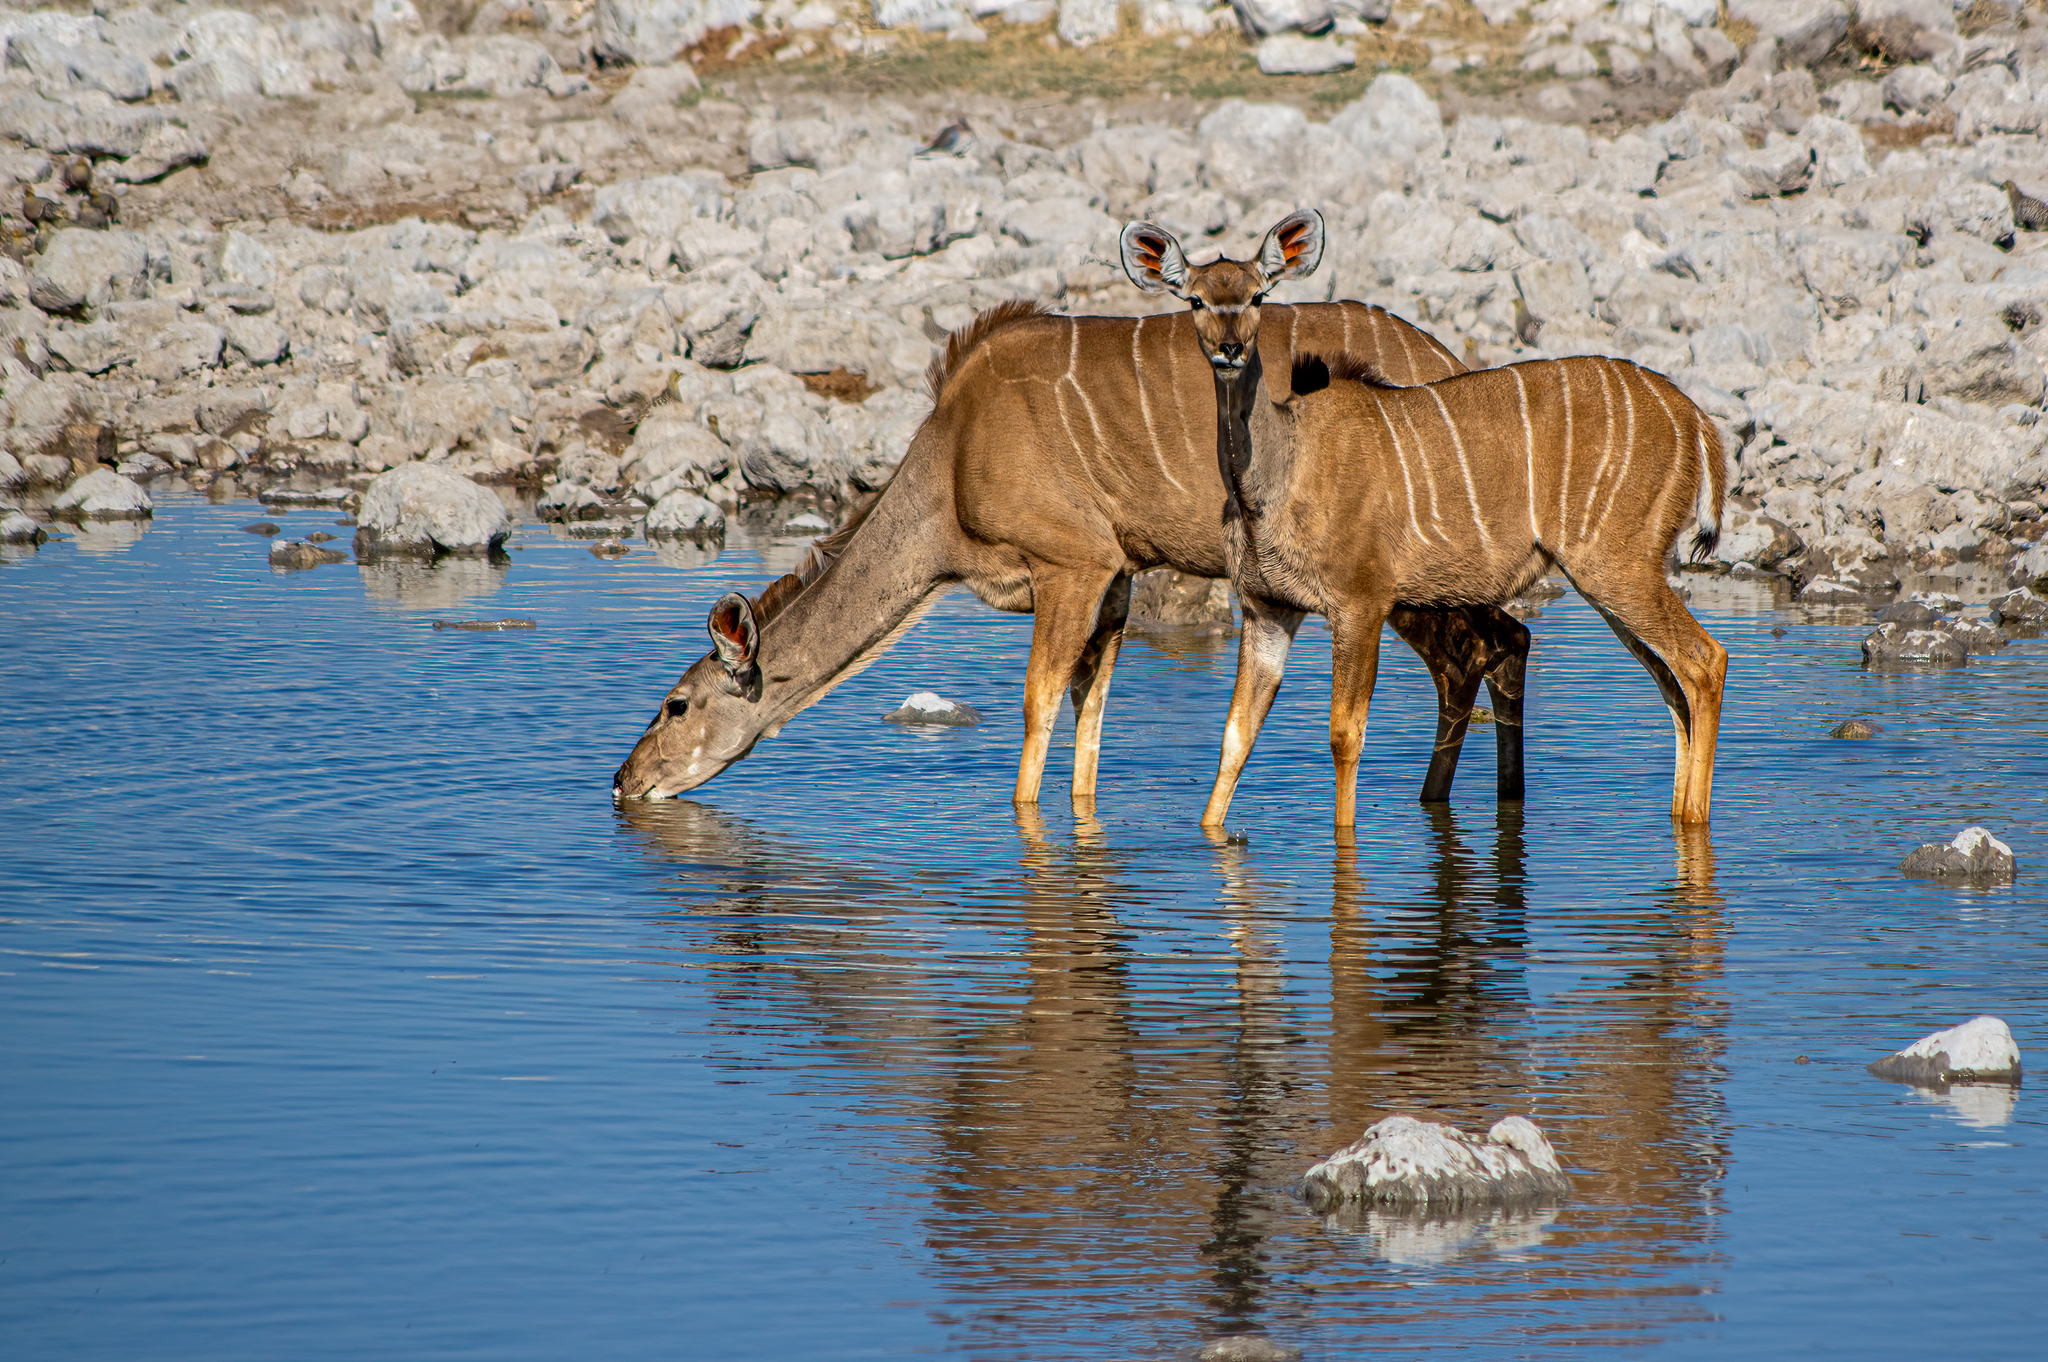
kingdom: Animalia
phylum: Chordata
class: Mammalia
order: Artiodactyla
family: Bovidae
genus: Tragelaphus
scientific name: Tragelaphus strepsiceros
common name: Greater kudu
